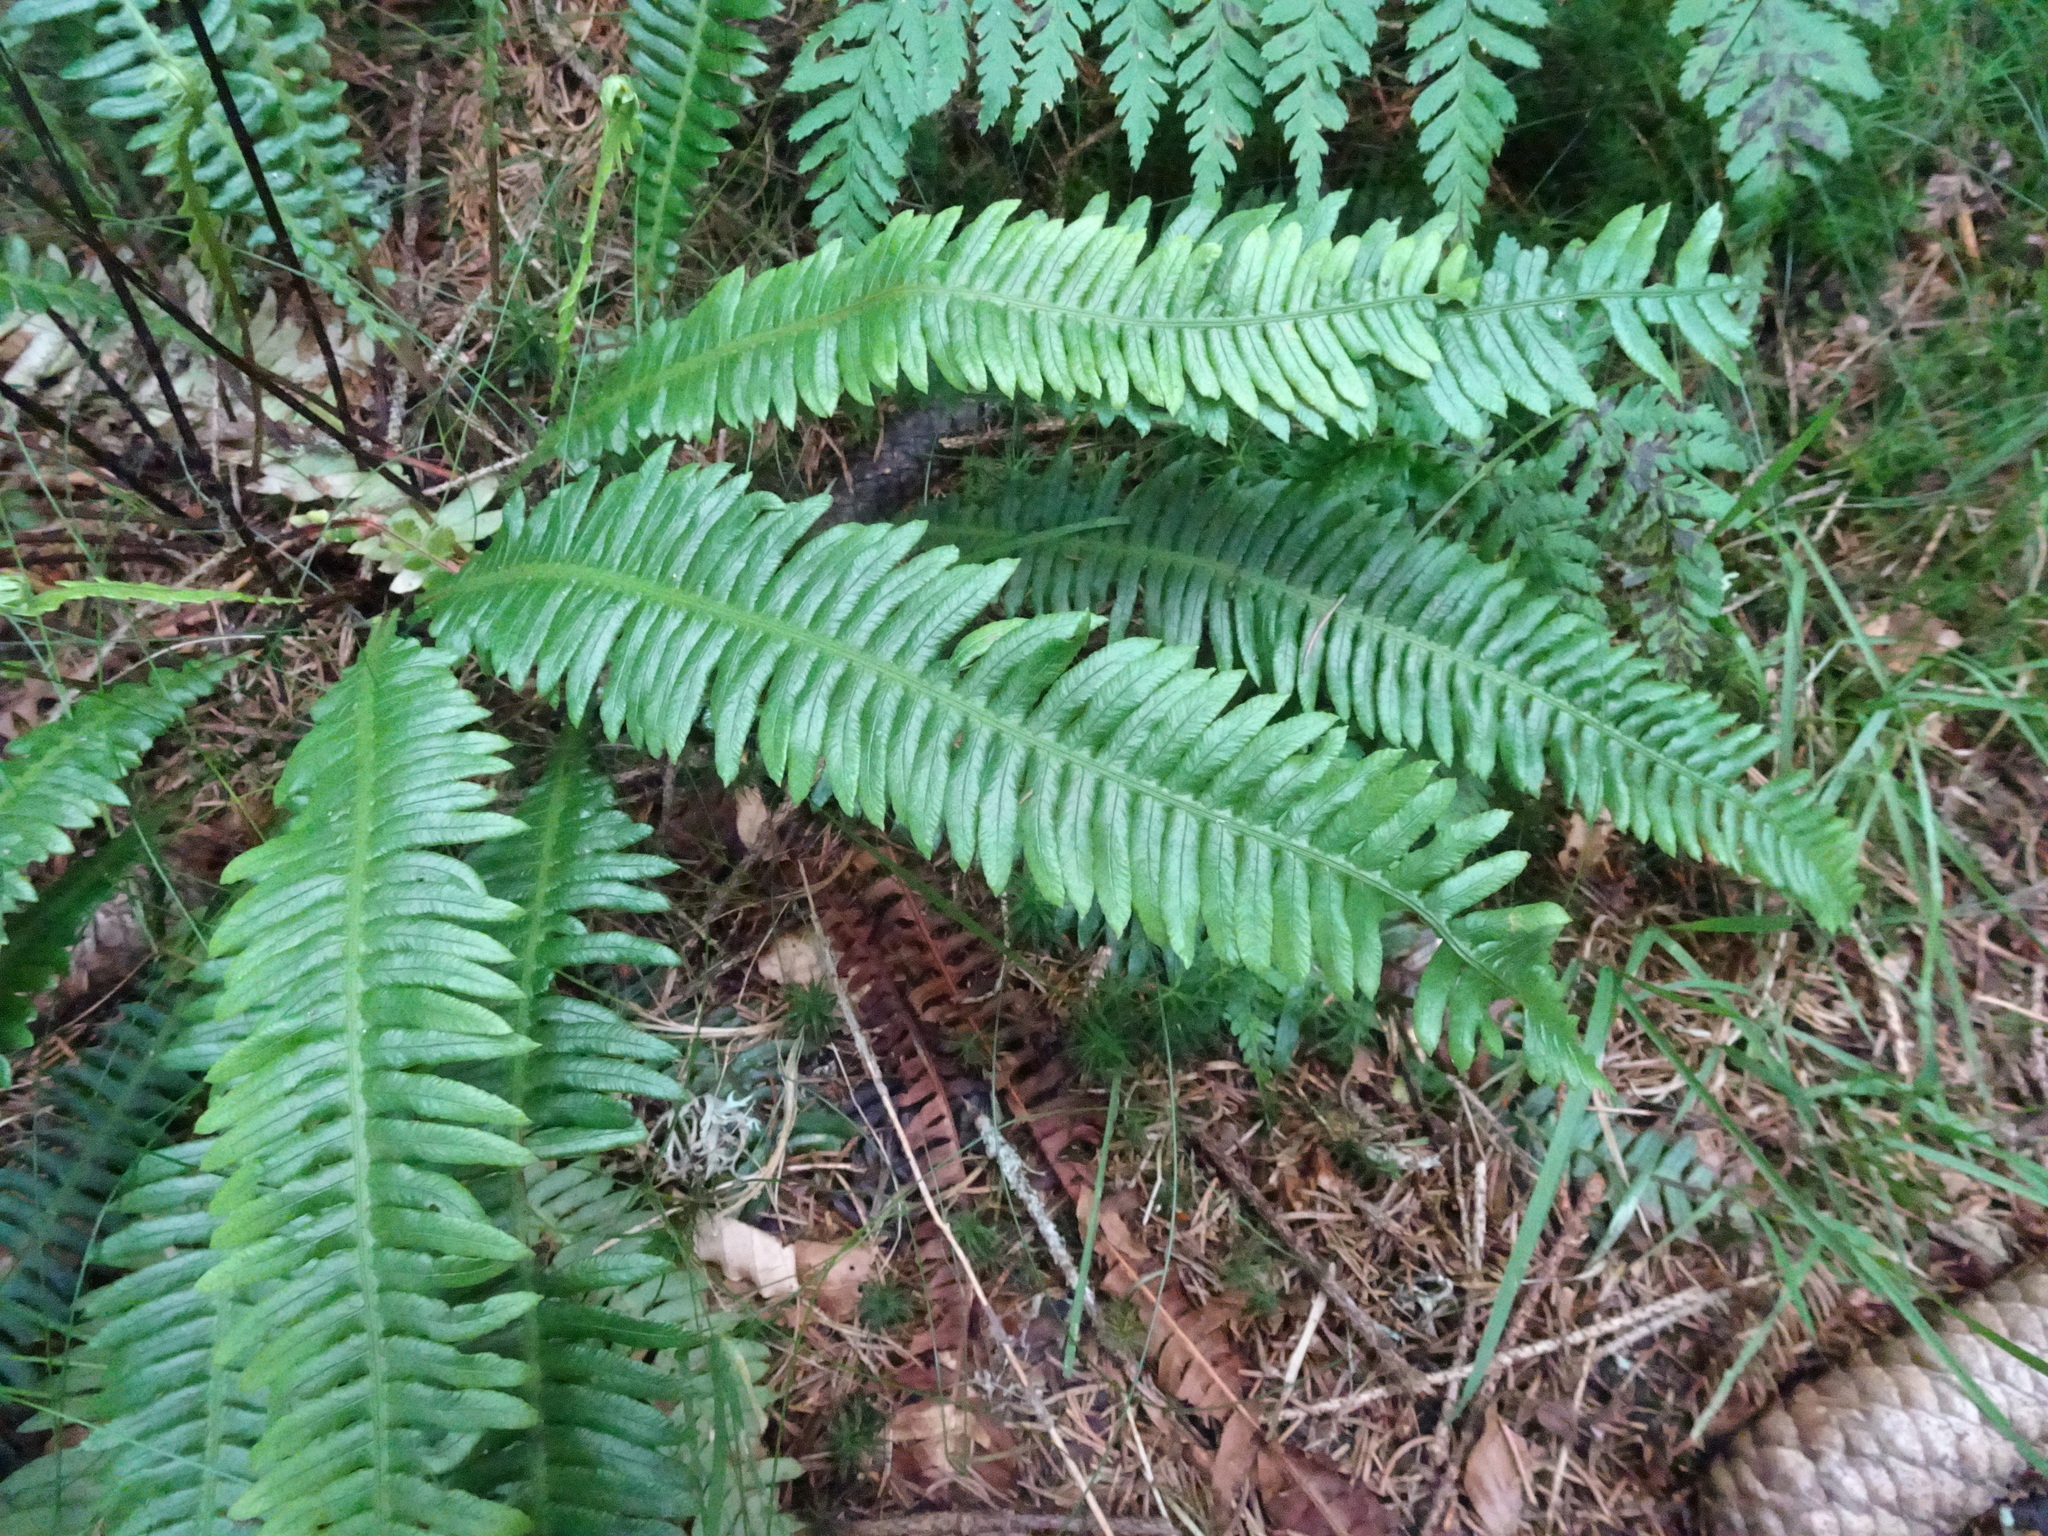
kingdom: Plantae
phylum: Tracheophyta
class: Polypodiopsida
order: Polypodiales
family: Blechnaceae
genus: Struthiopteris
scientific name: Struthiopteris spicant
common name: Deer fern
